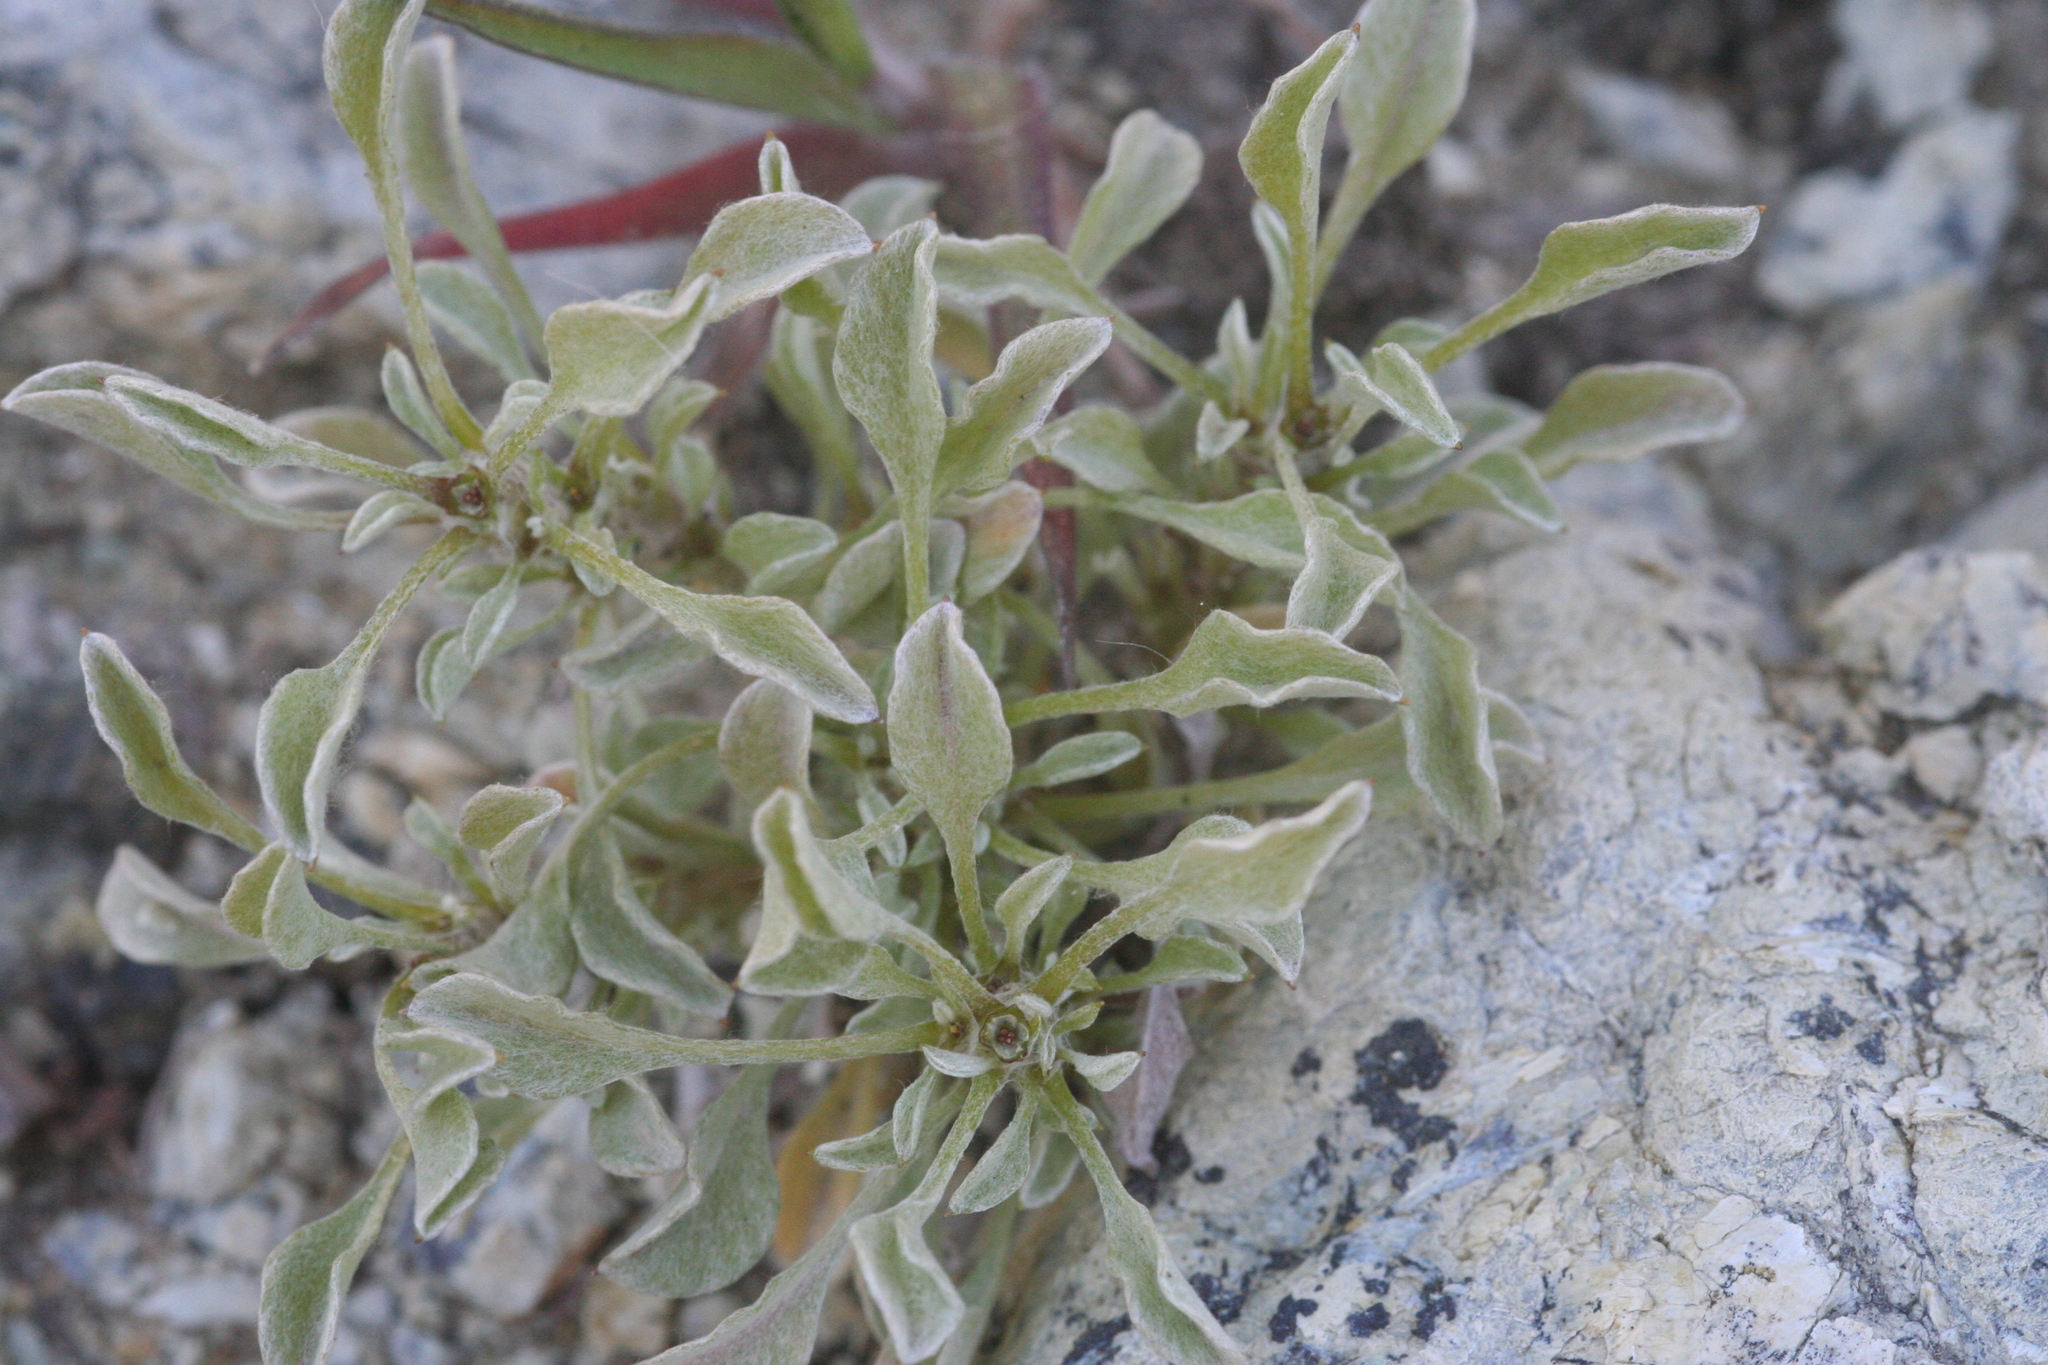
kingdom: Plantae
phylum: Tracheophyta
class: Magnoliopsida
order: Asterales
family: Asteraceae
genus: Hesperevax
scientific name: Hesperevax sparsiflora
